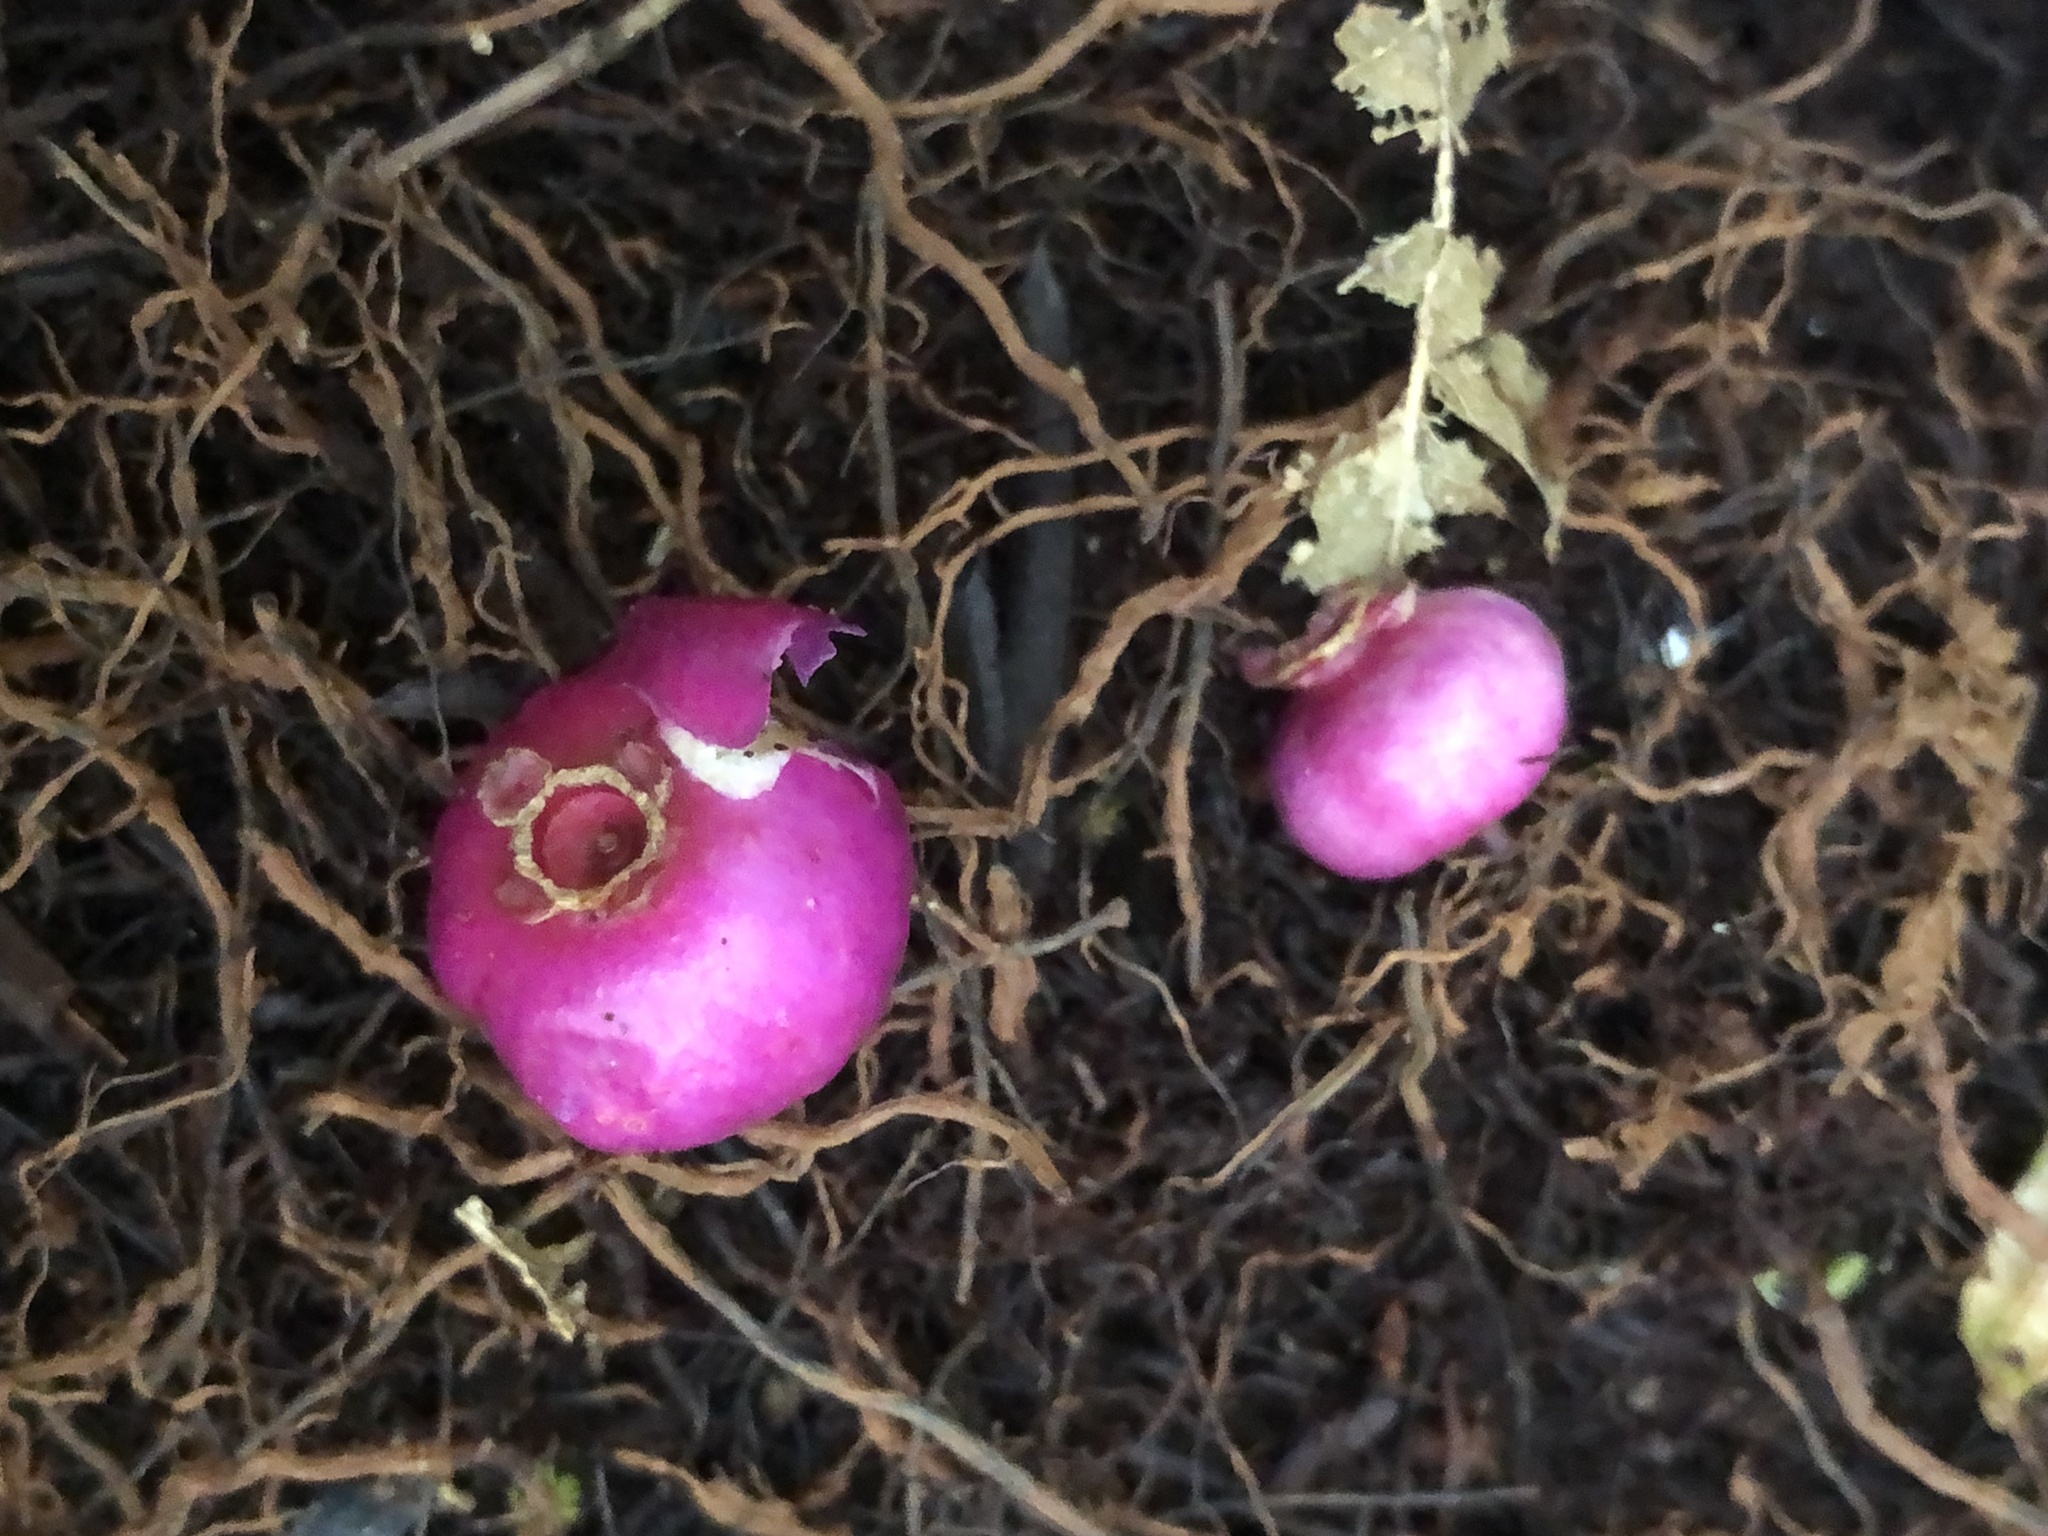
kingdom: Plantae
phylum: Tracheophyta
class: Magnoliopsida
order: Myrtales
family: Myrtaceae
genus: Syzygium
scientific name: Syzygium crebrinerve
